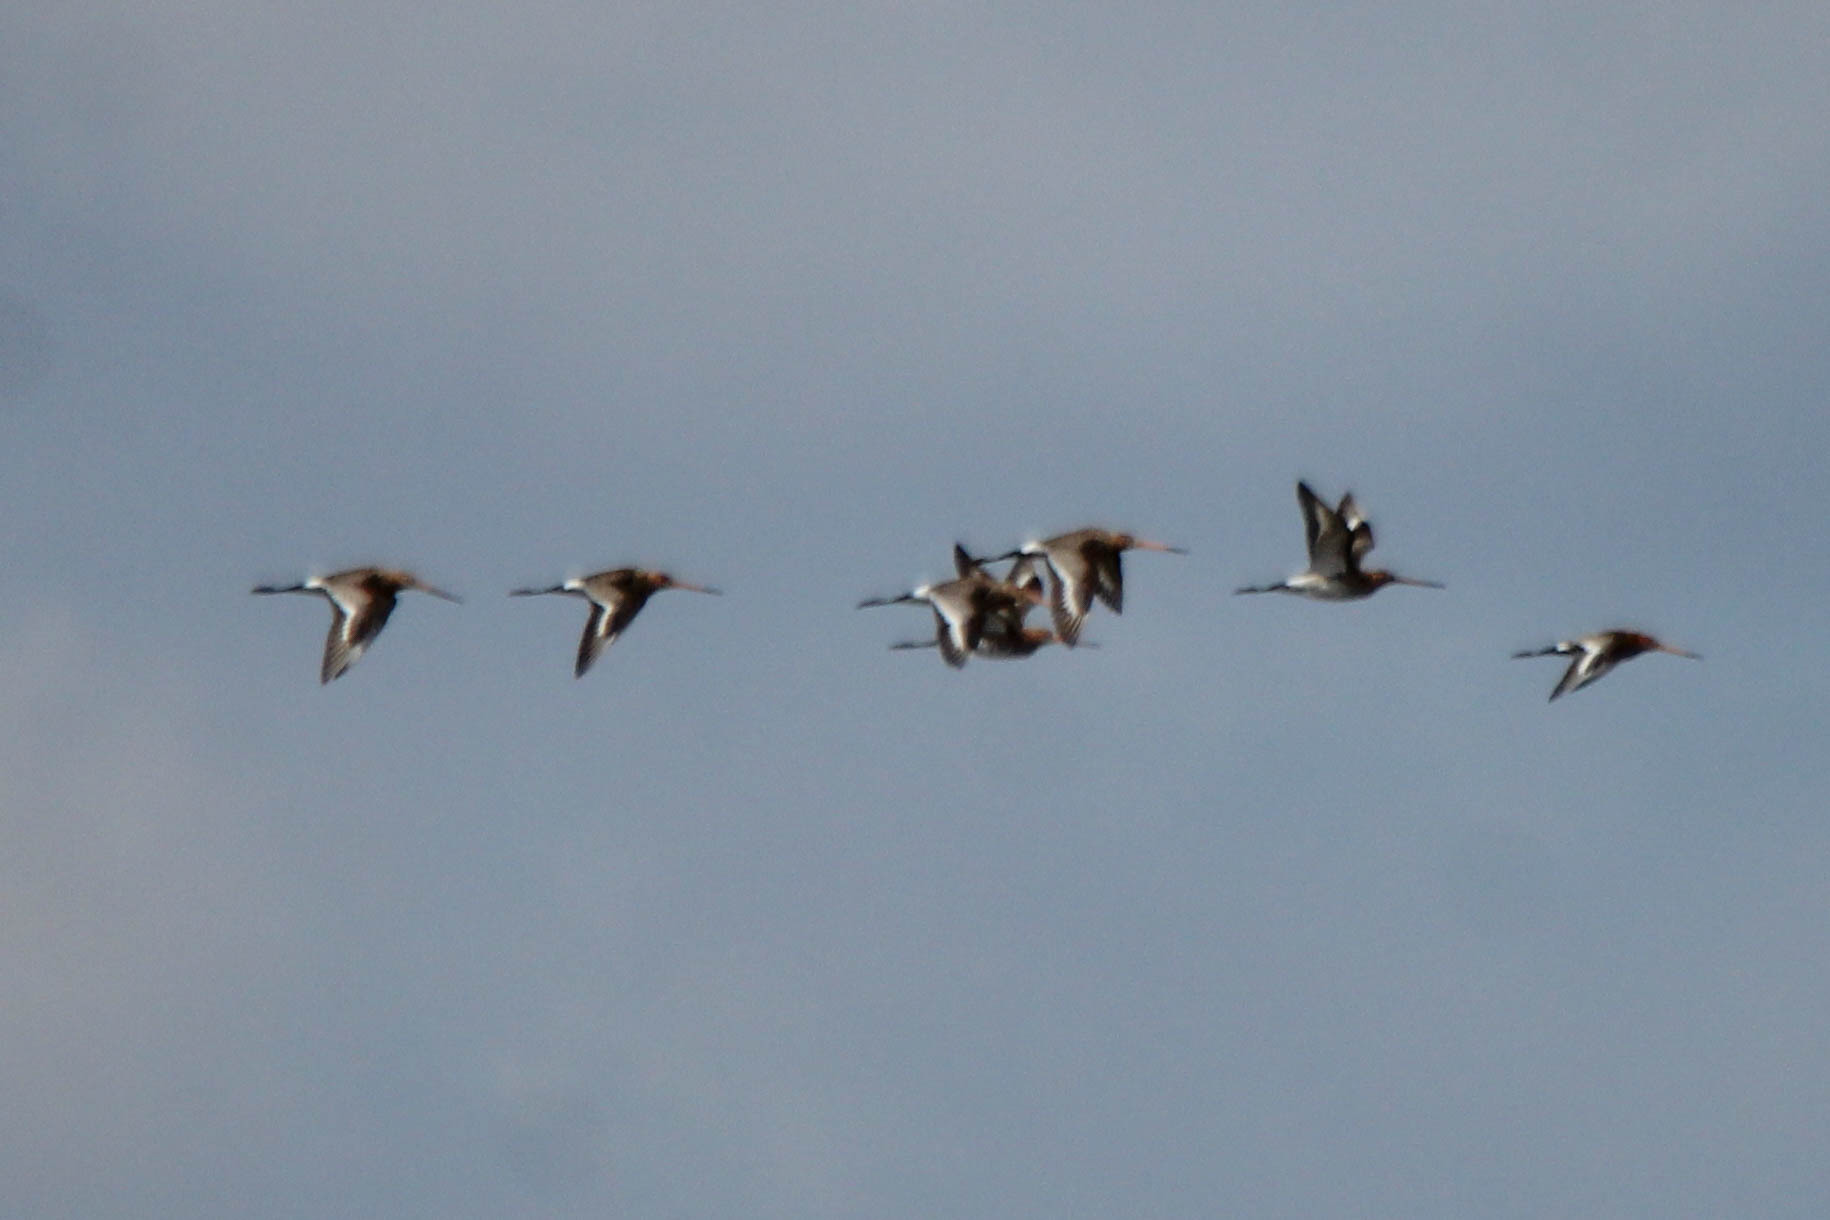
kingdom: Animalia
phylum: Chordata
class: Aves
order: Charadriiformes
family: Scolopacidae
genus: Limosa
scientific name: Limosa limosa
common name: Black-tailed godwit
